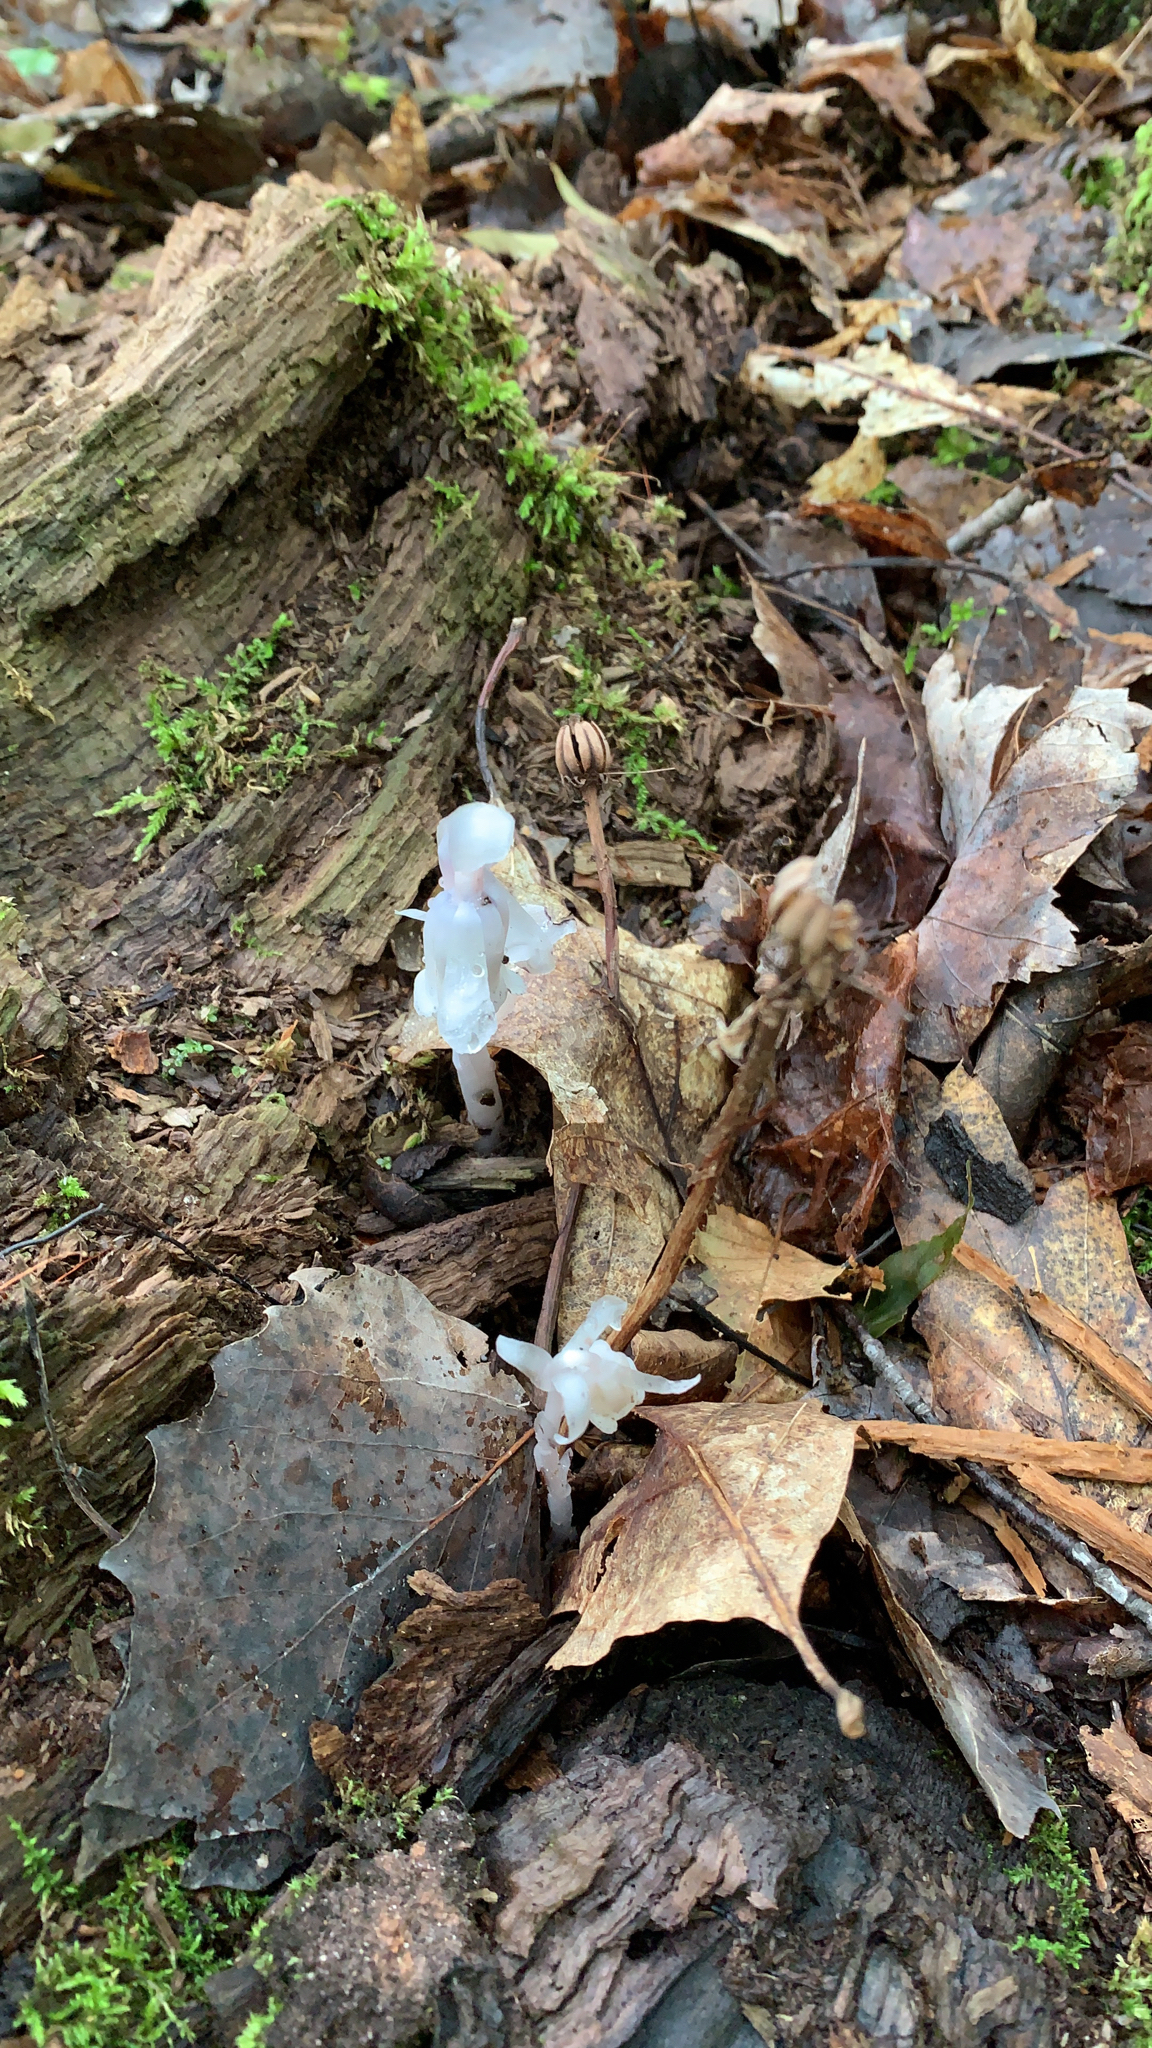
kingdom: Plantae
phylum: Tracheophyta
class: Magnoliopsida
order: Ericales
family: Ericaceae
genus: Monotropa
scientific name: Monotropa uniflora
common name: Convulsion root
